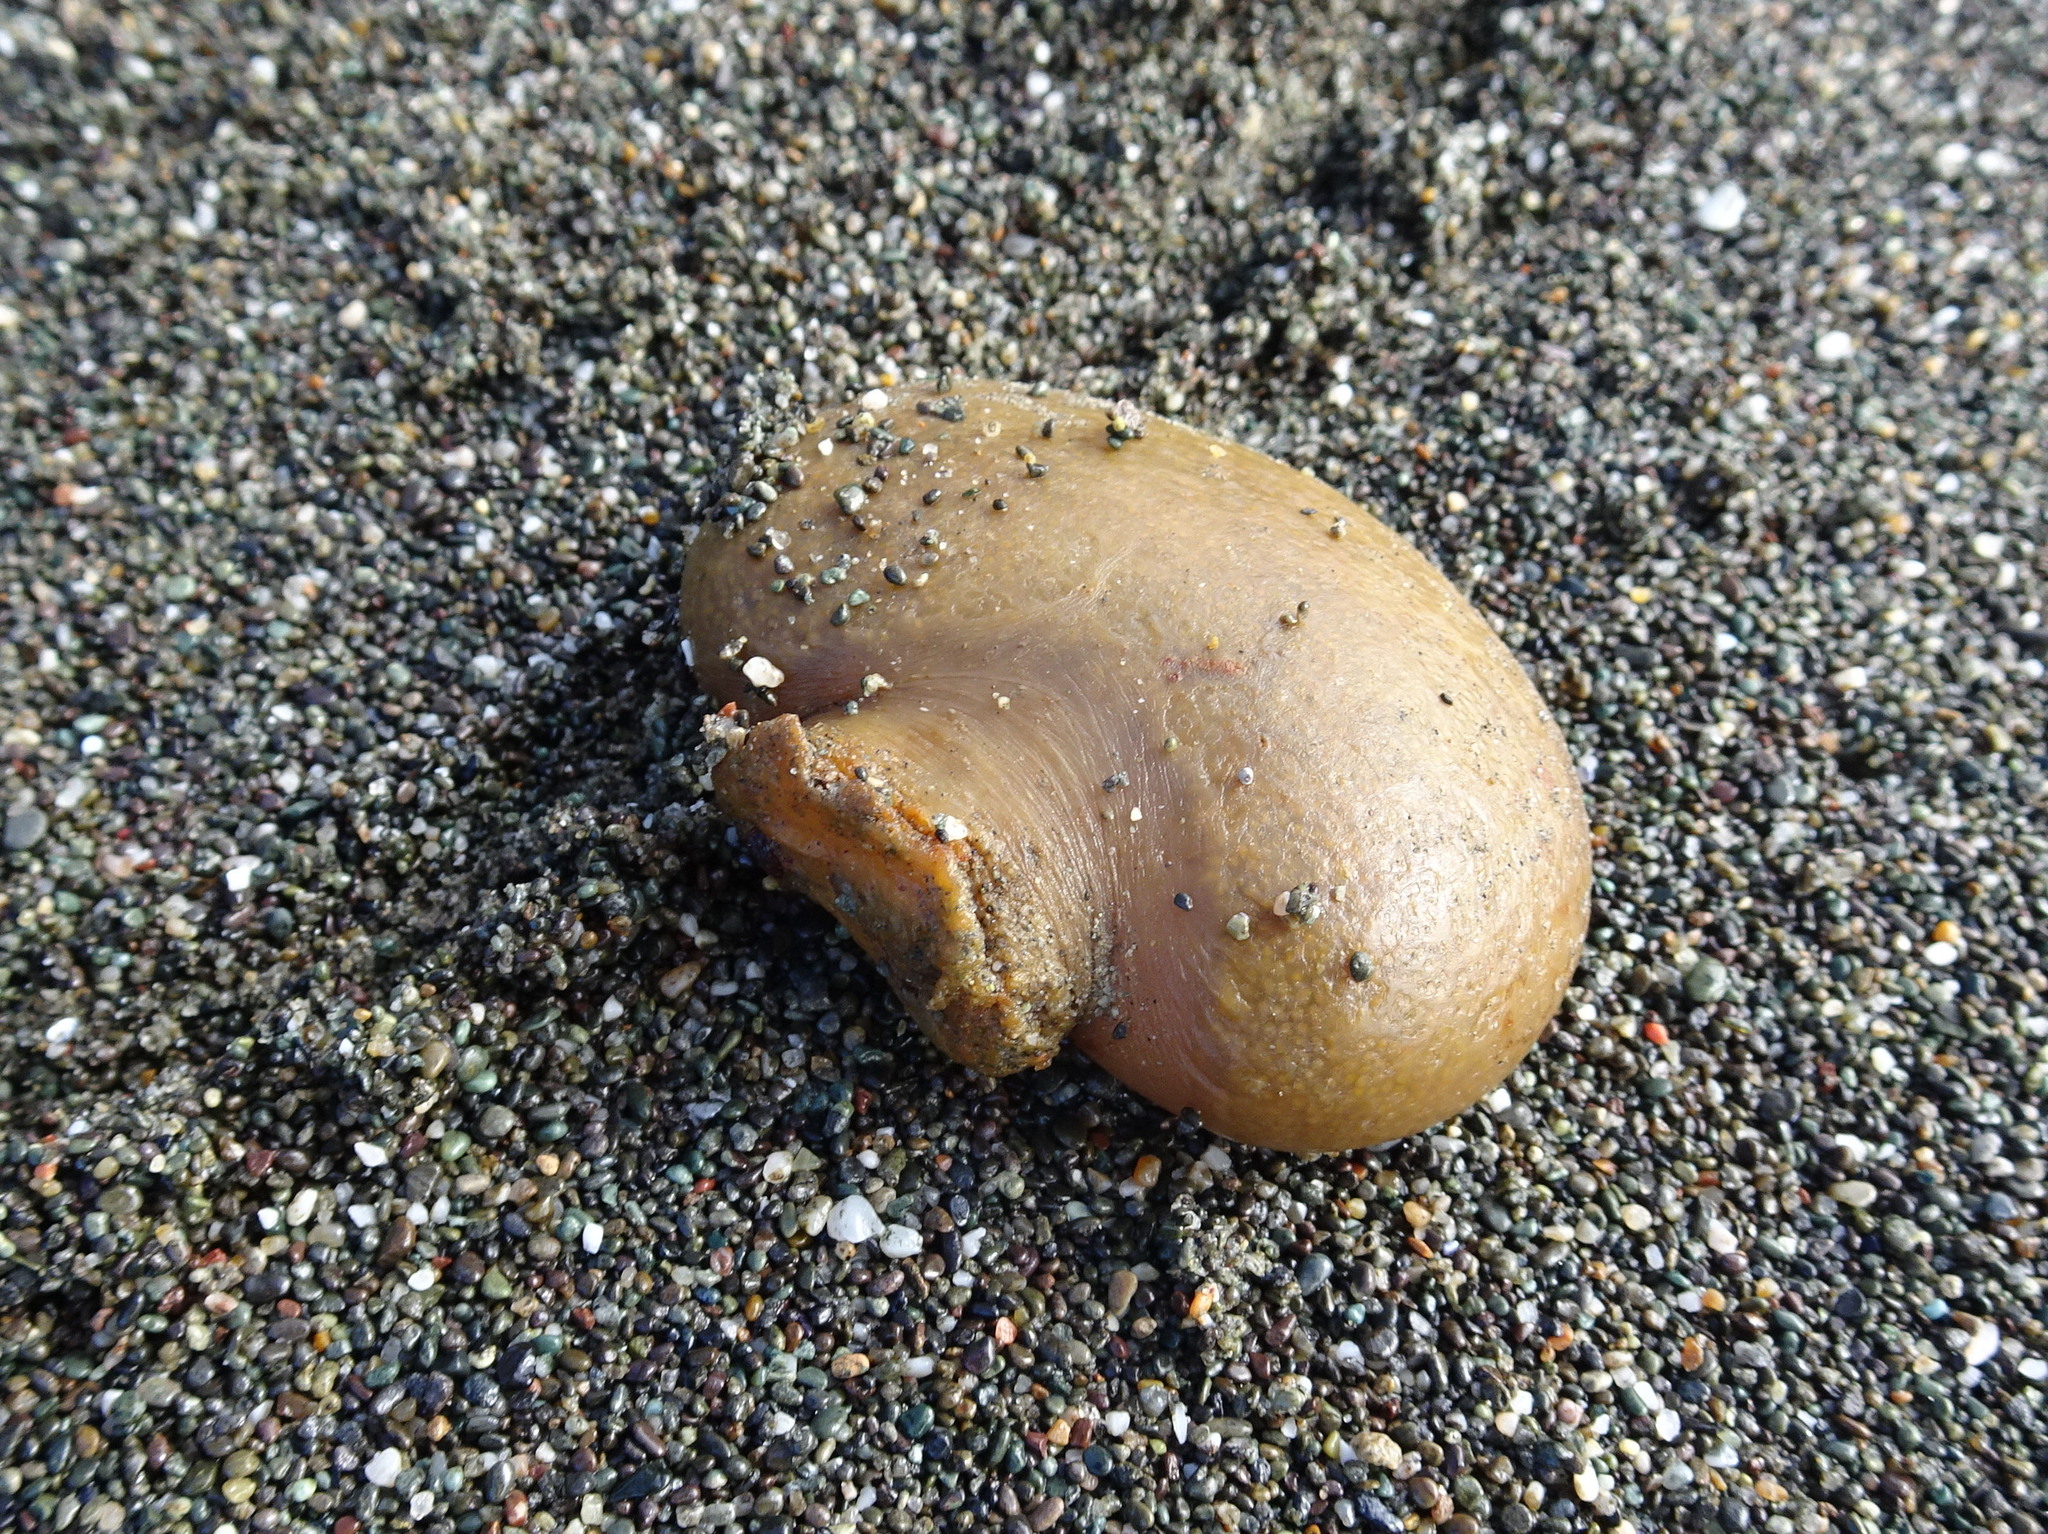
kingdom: Animalia
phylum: Chordata
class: Ascidiacea
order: Aplousobranchia
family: Polyclinidae
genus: Aplidium
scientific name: Aplidium californicum
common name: Sea pork
